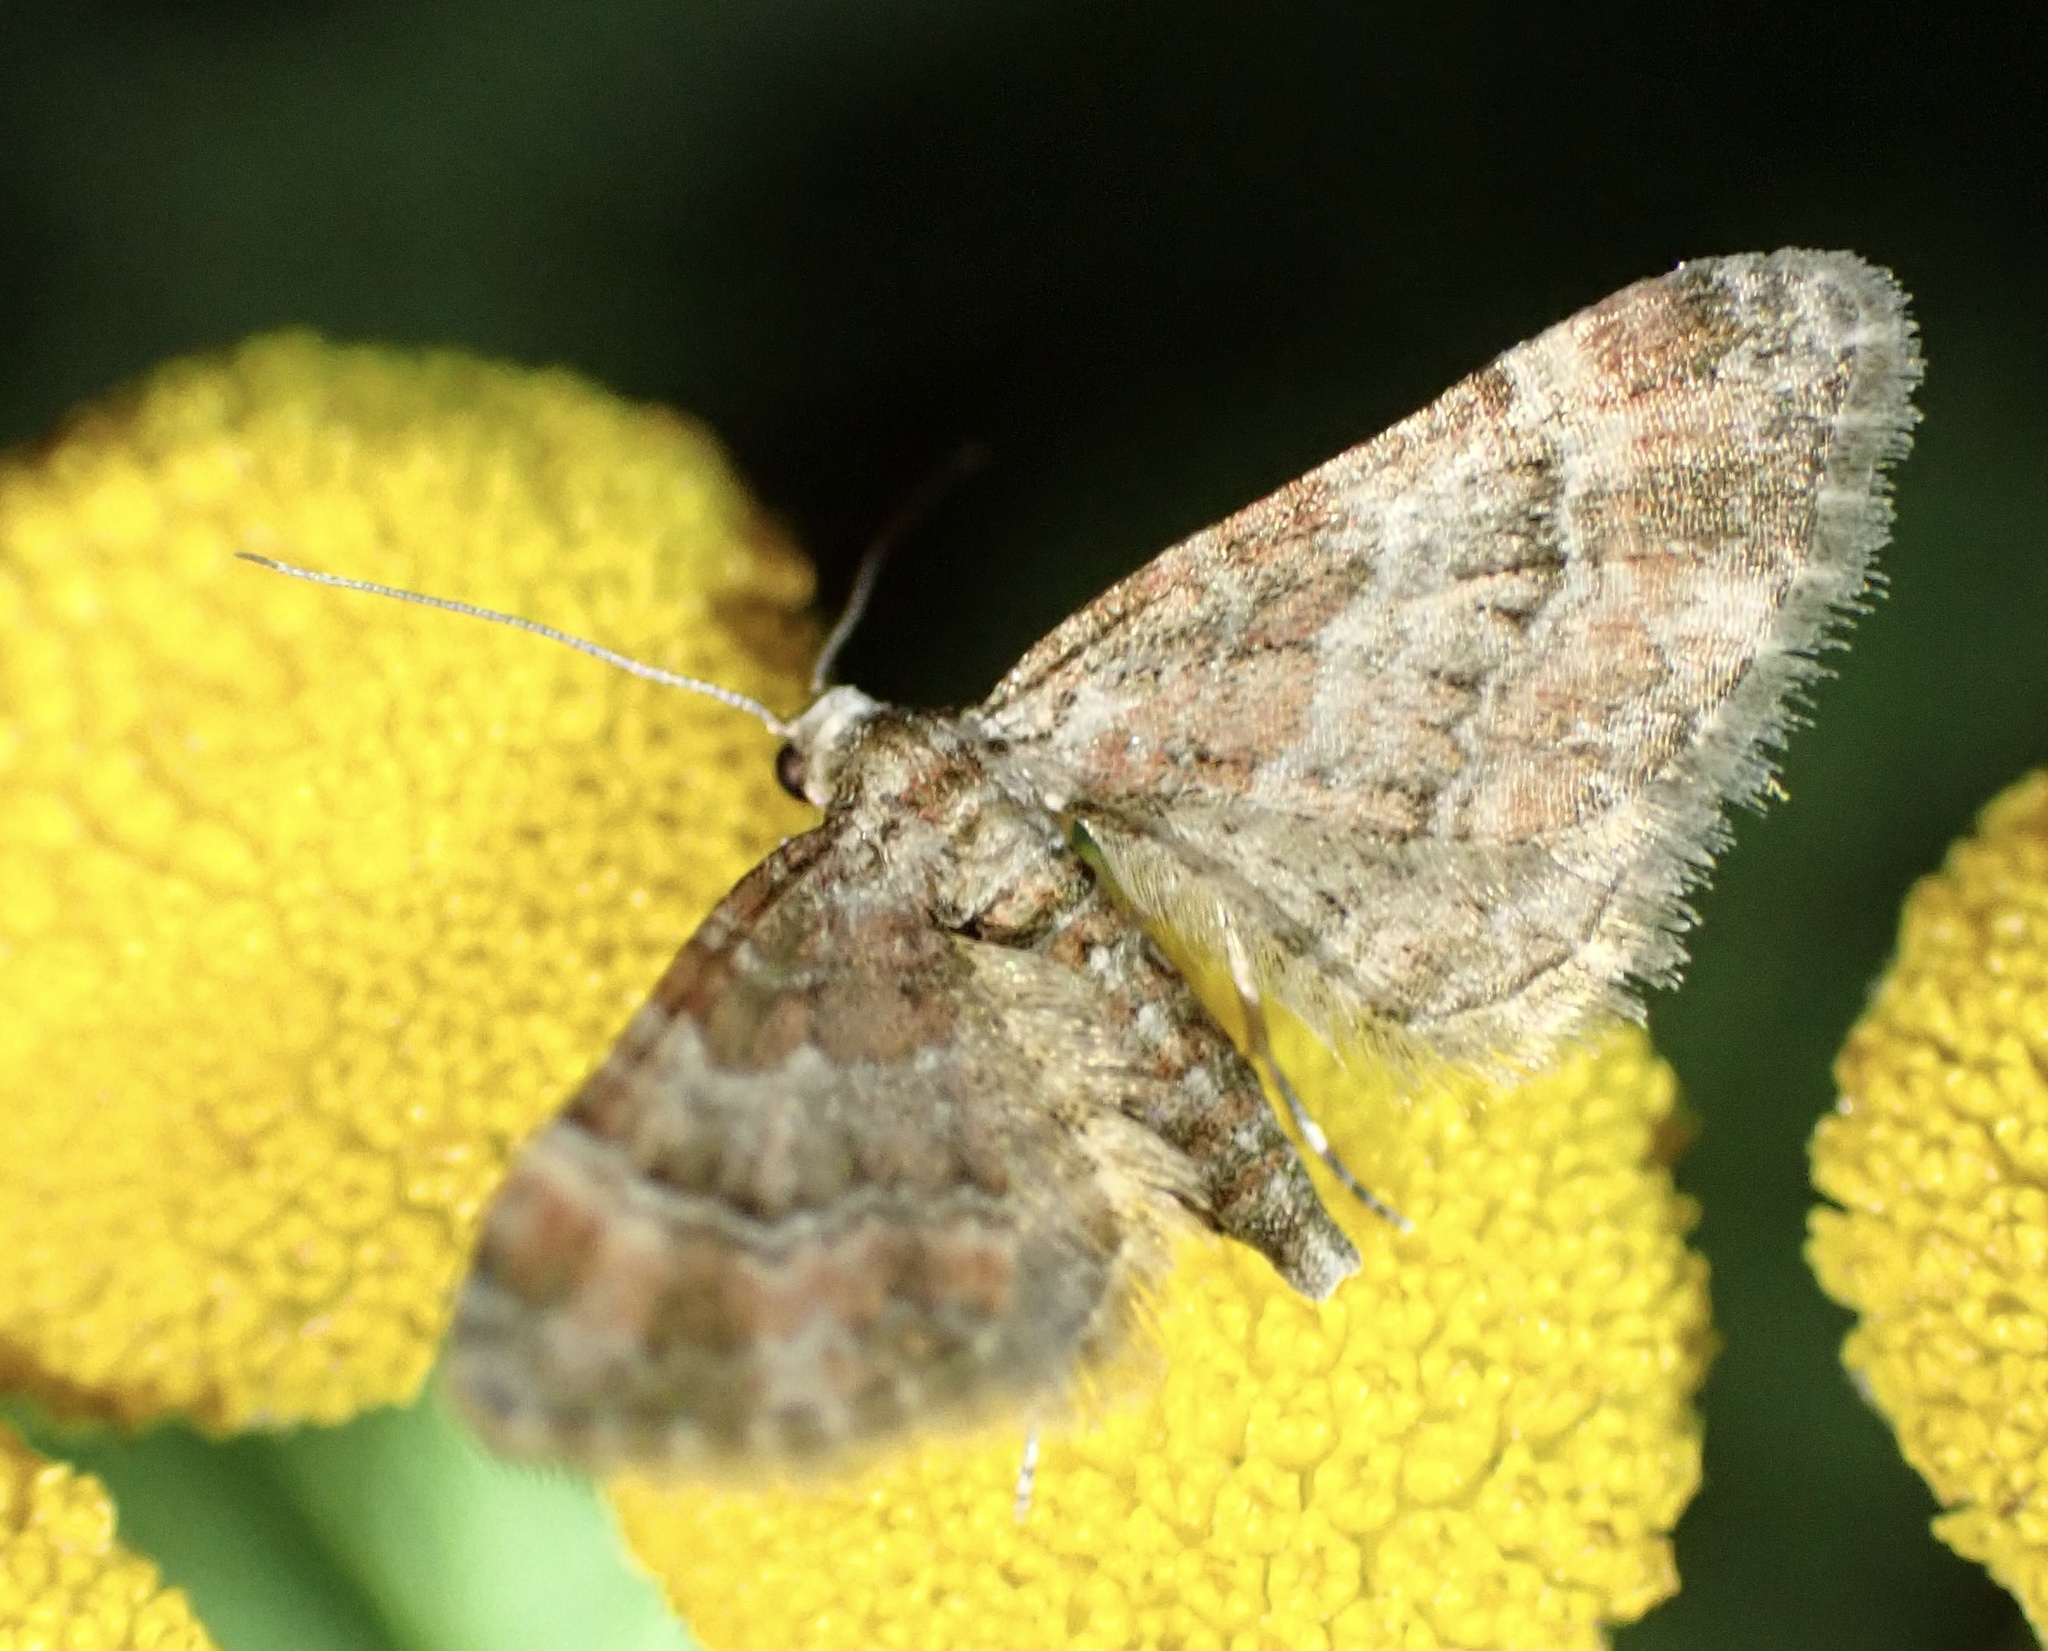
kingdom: Animalia
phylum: Arthropoda
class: Insecta
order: Lepidoptera
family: Geometridae
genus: Gymnoscelis
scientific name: Gymnoscelis rufifasciata
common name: Double-striped pug
